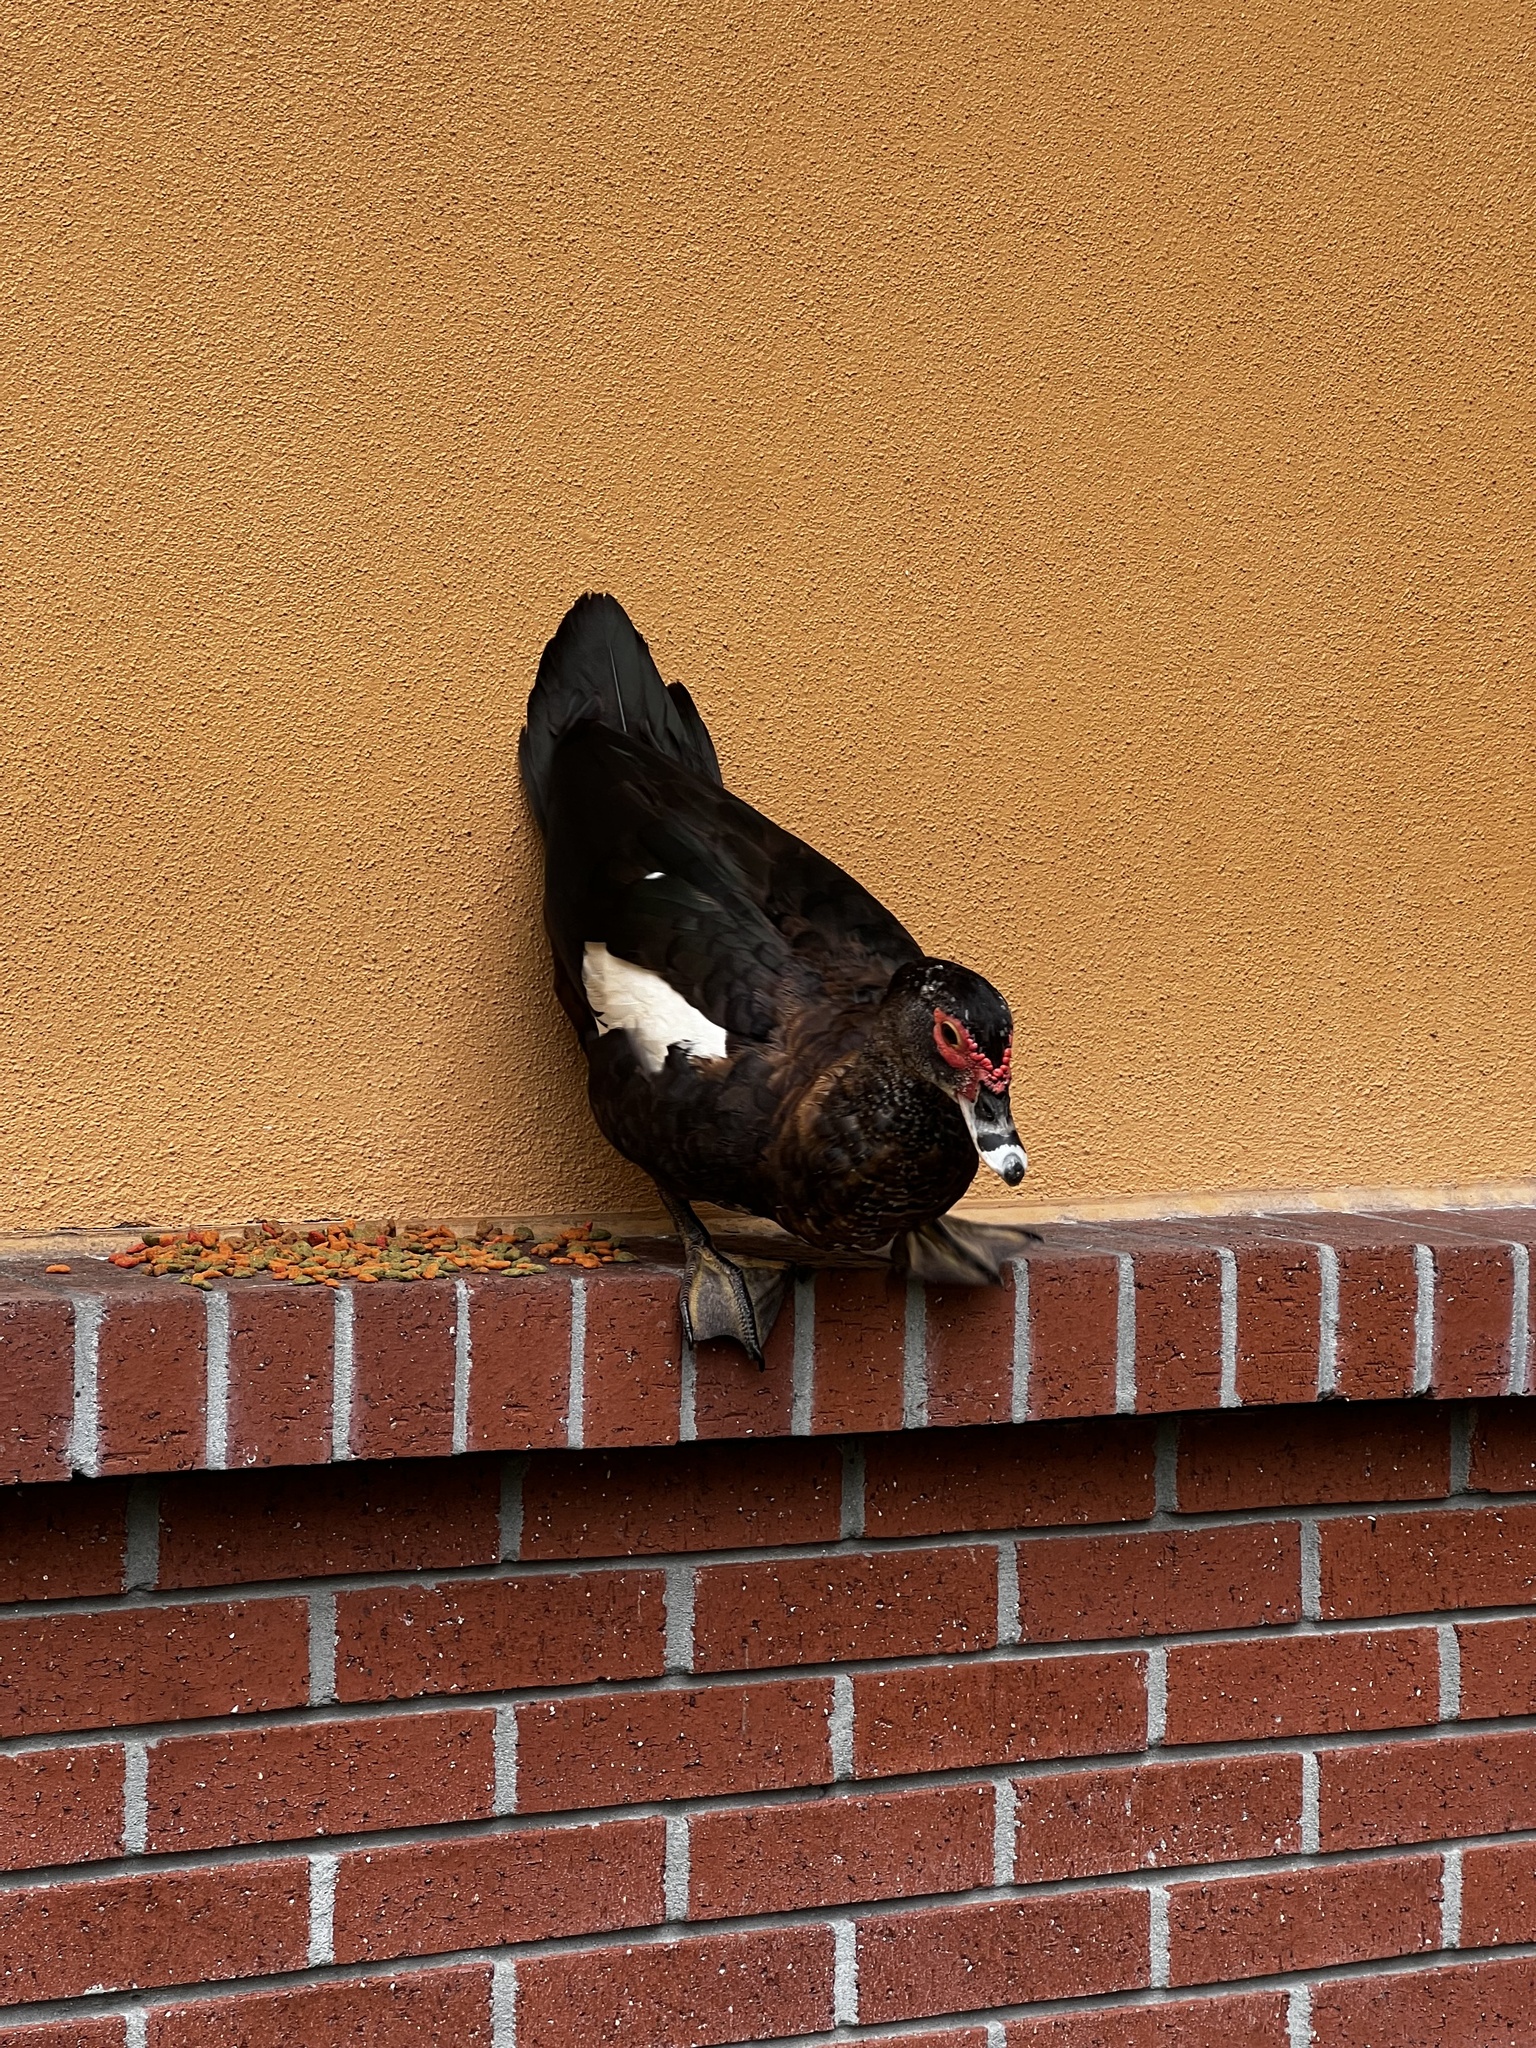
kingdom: Animalia
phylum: Chordata
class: Aves
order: Anseriformes
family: Anatidae
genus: Cairina
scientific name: Cairina moschata
